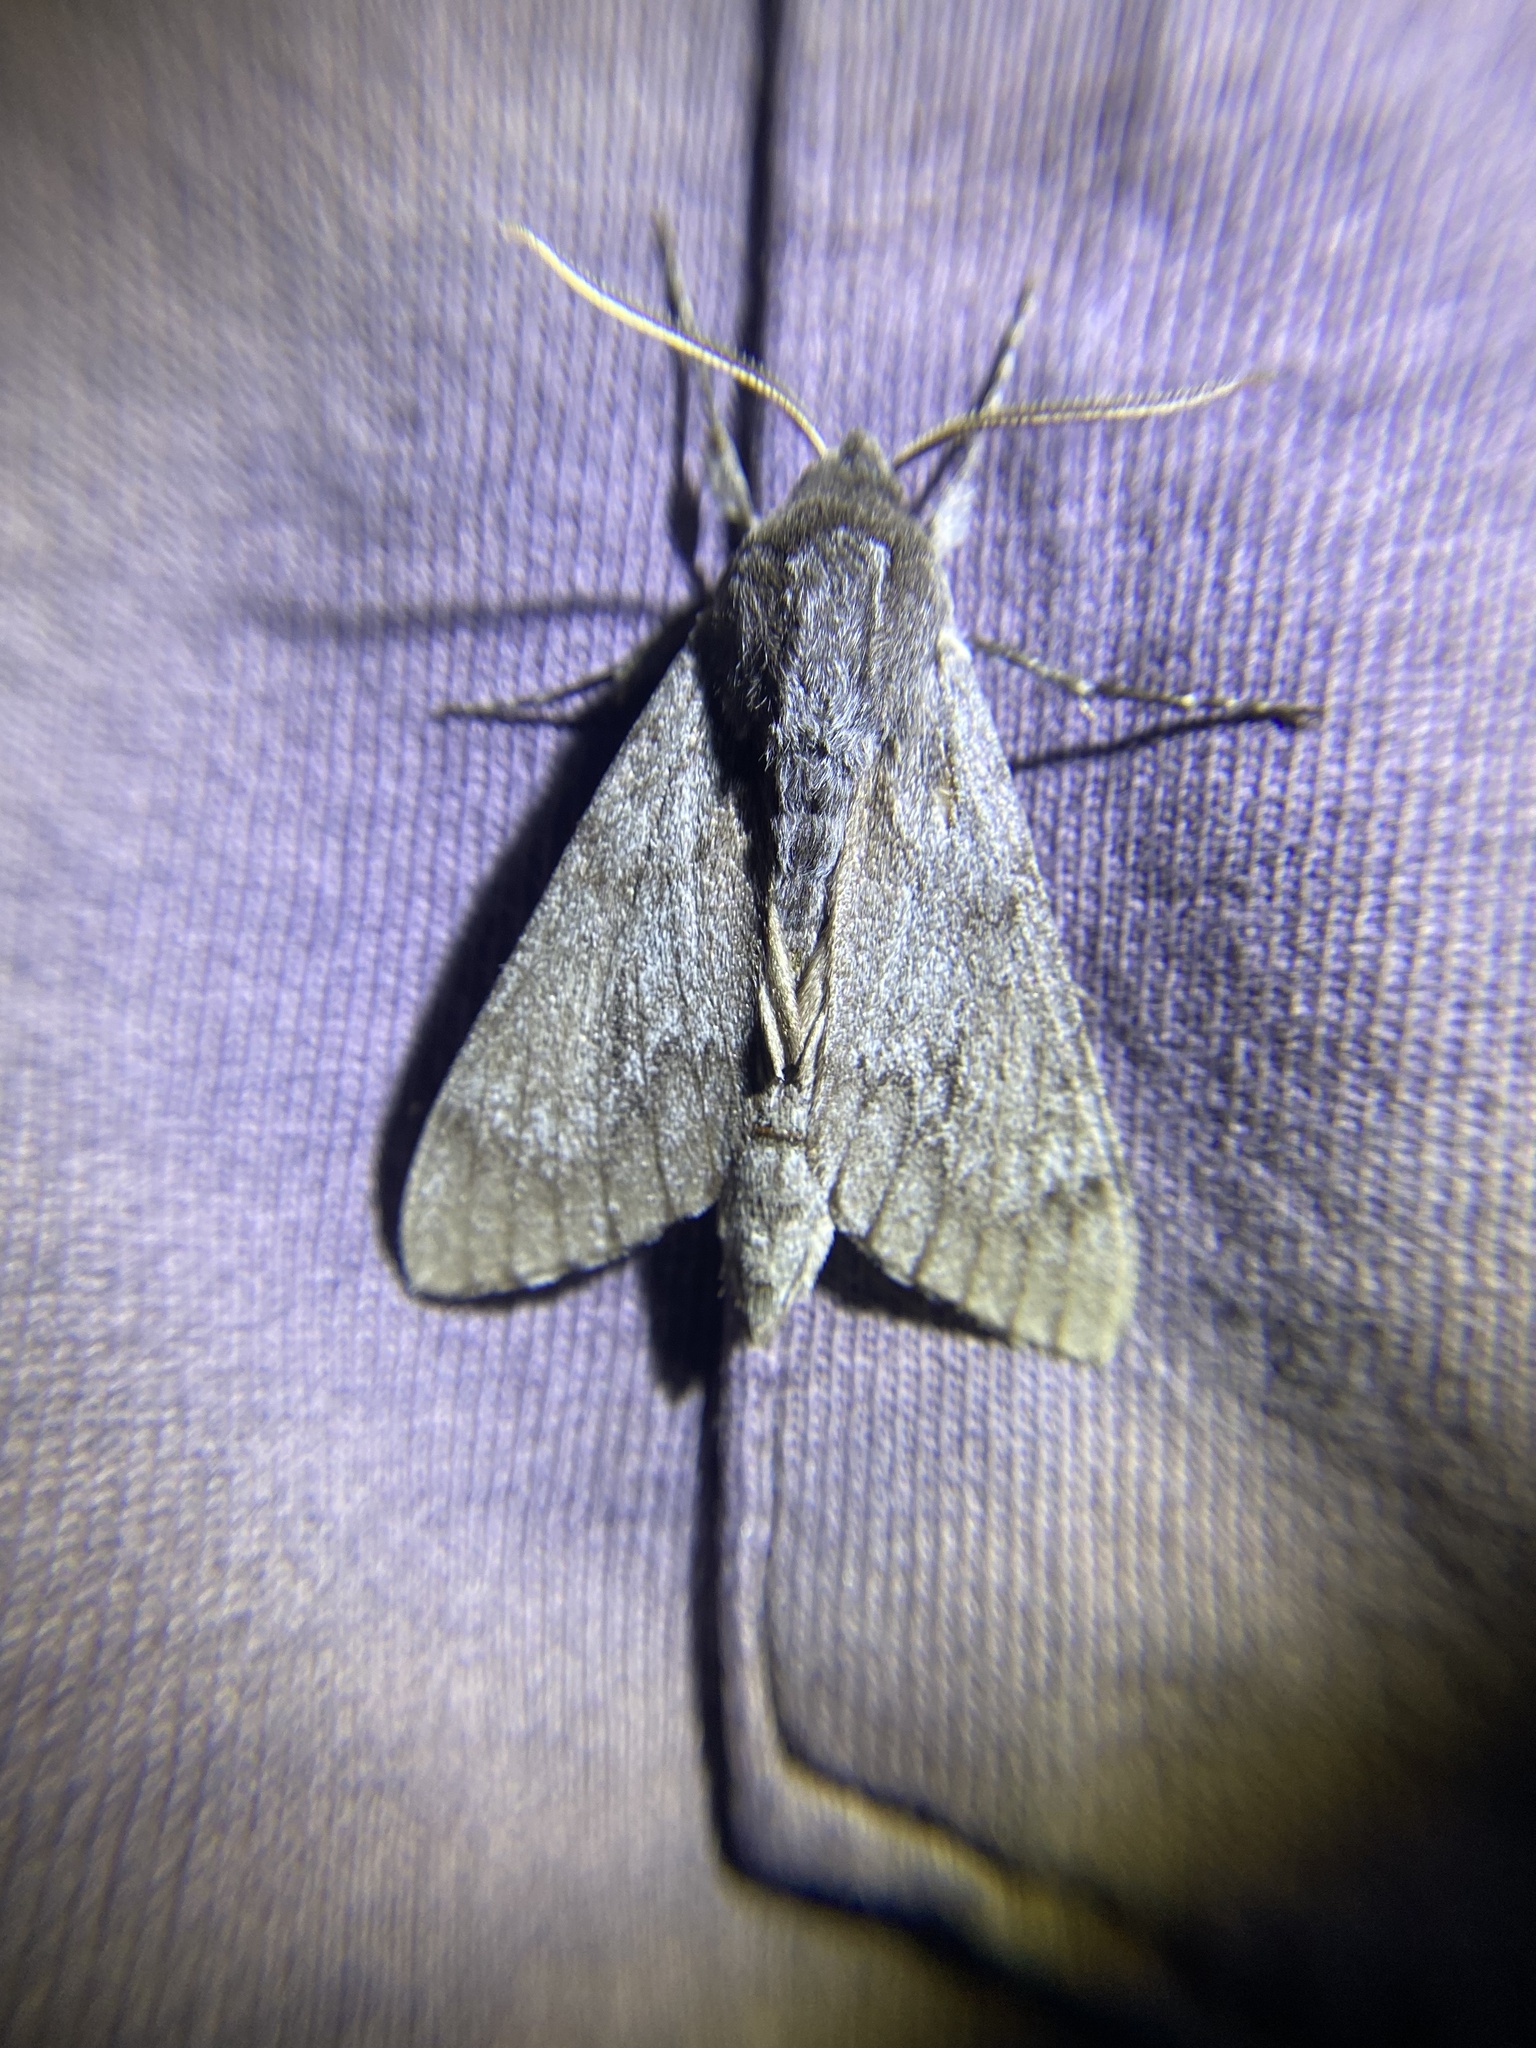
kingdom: Animalia
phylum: Arthropoda
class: Insecta
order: Lepidoptera
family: Sphingidae
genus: Lapara
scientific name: Lapara coniferarum
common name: Southern pine sphinx
